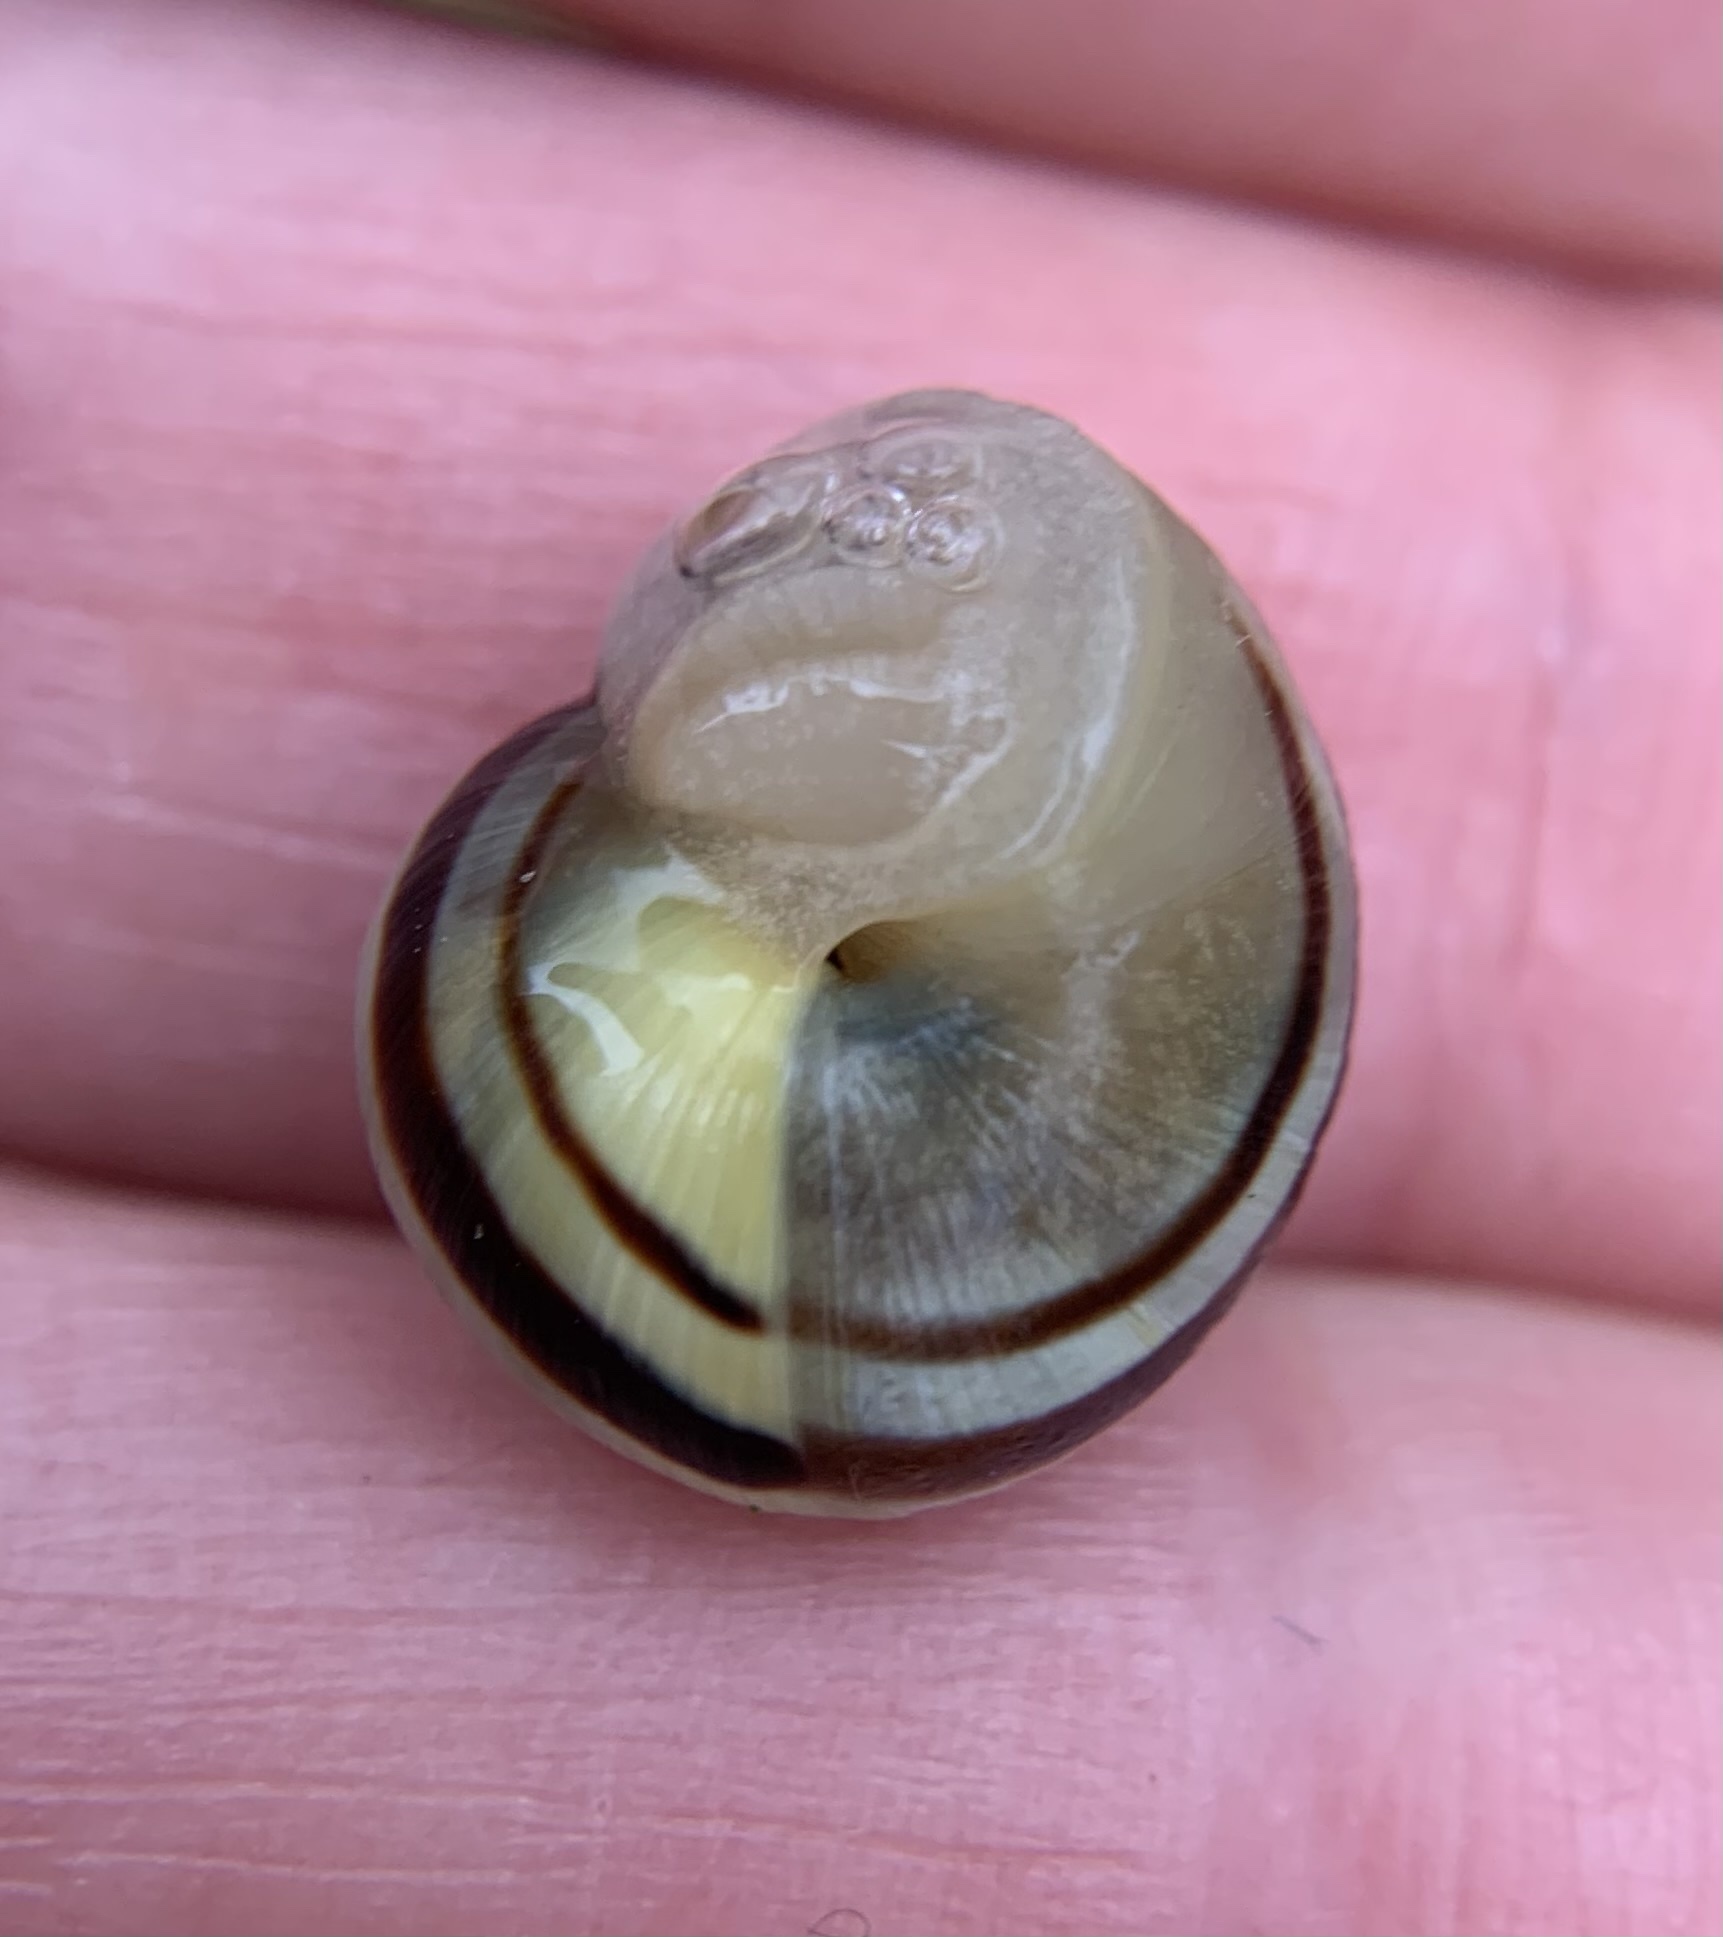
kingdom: Animalia
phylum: Mollusca
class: Gastropoda
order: Stylommatophora
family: Helicidae
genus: Cepaea
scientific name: Cepaea hortensis
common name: White-lip gardensnail
